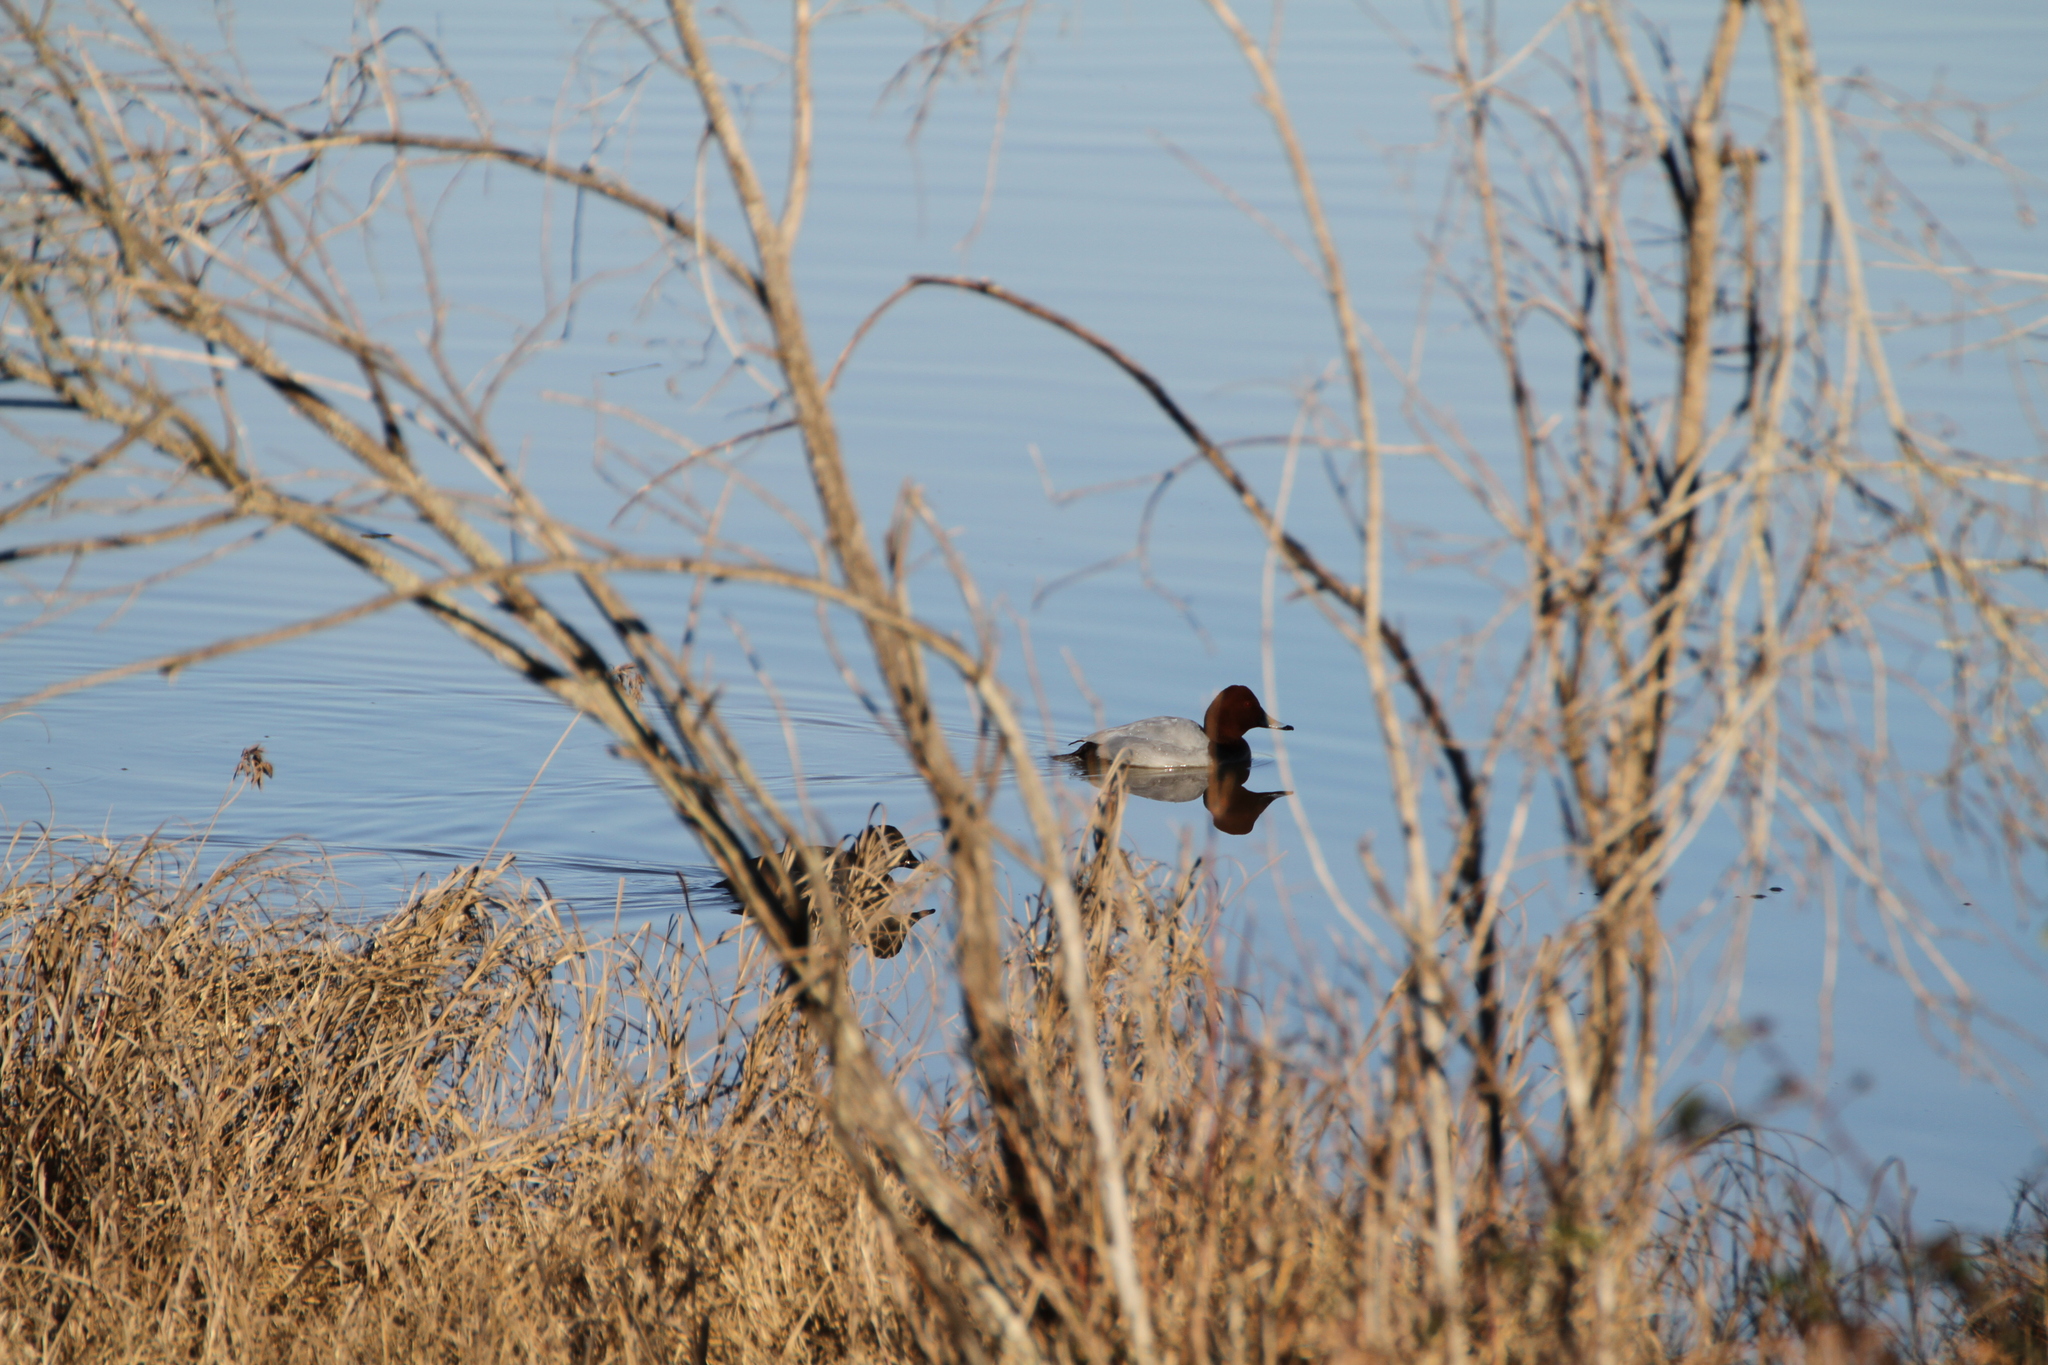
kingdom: Animalia
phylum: Chordata
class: Aves
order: Anseriformes
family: Anatidae
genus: Aythya
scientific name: Aythya ferina
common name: Common pochard
